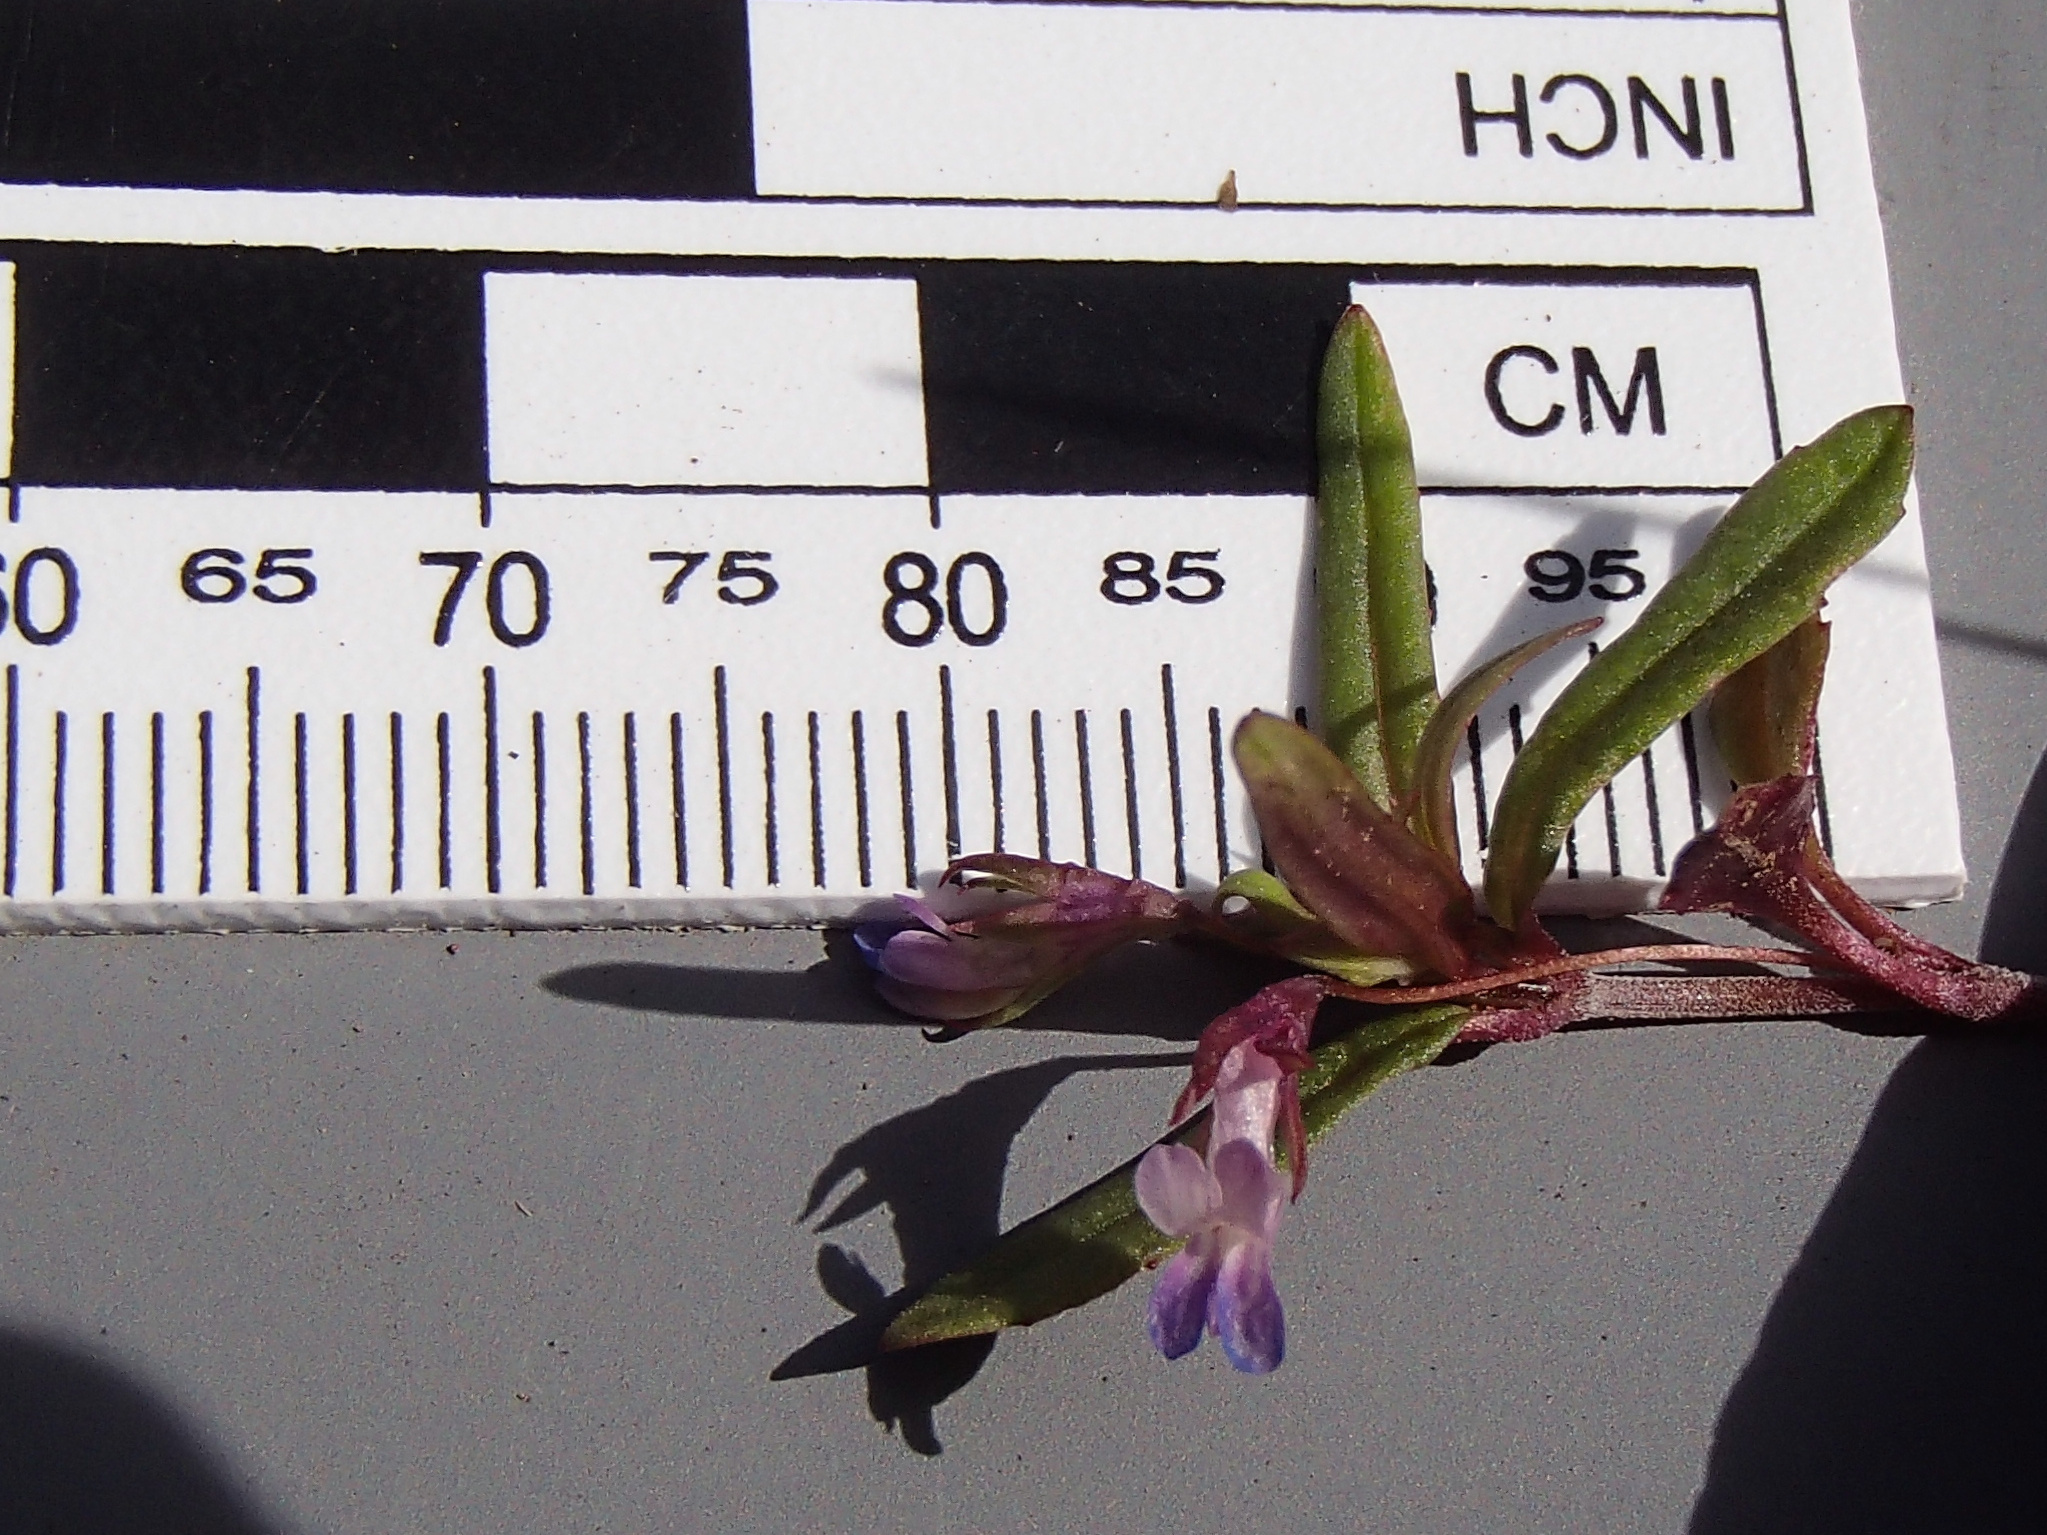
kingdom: Plantae
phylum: Tracheophyta
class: Magnoliopsida
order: Lamiales
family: Plantaginaceae
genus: Collinsia
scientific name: Collinsia parviflora
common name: Blue-lips
